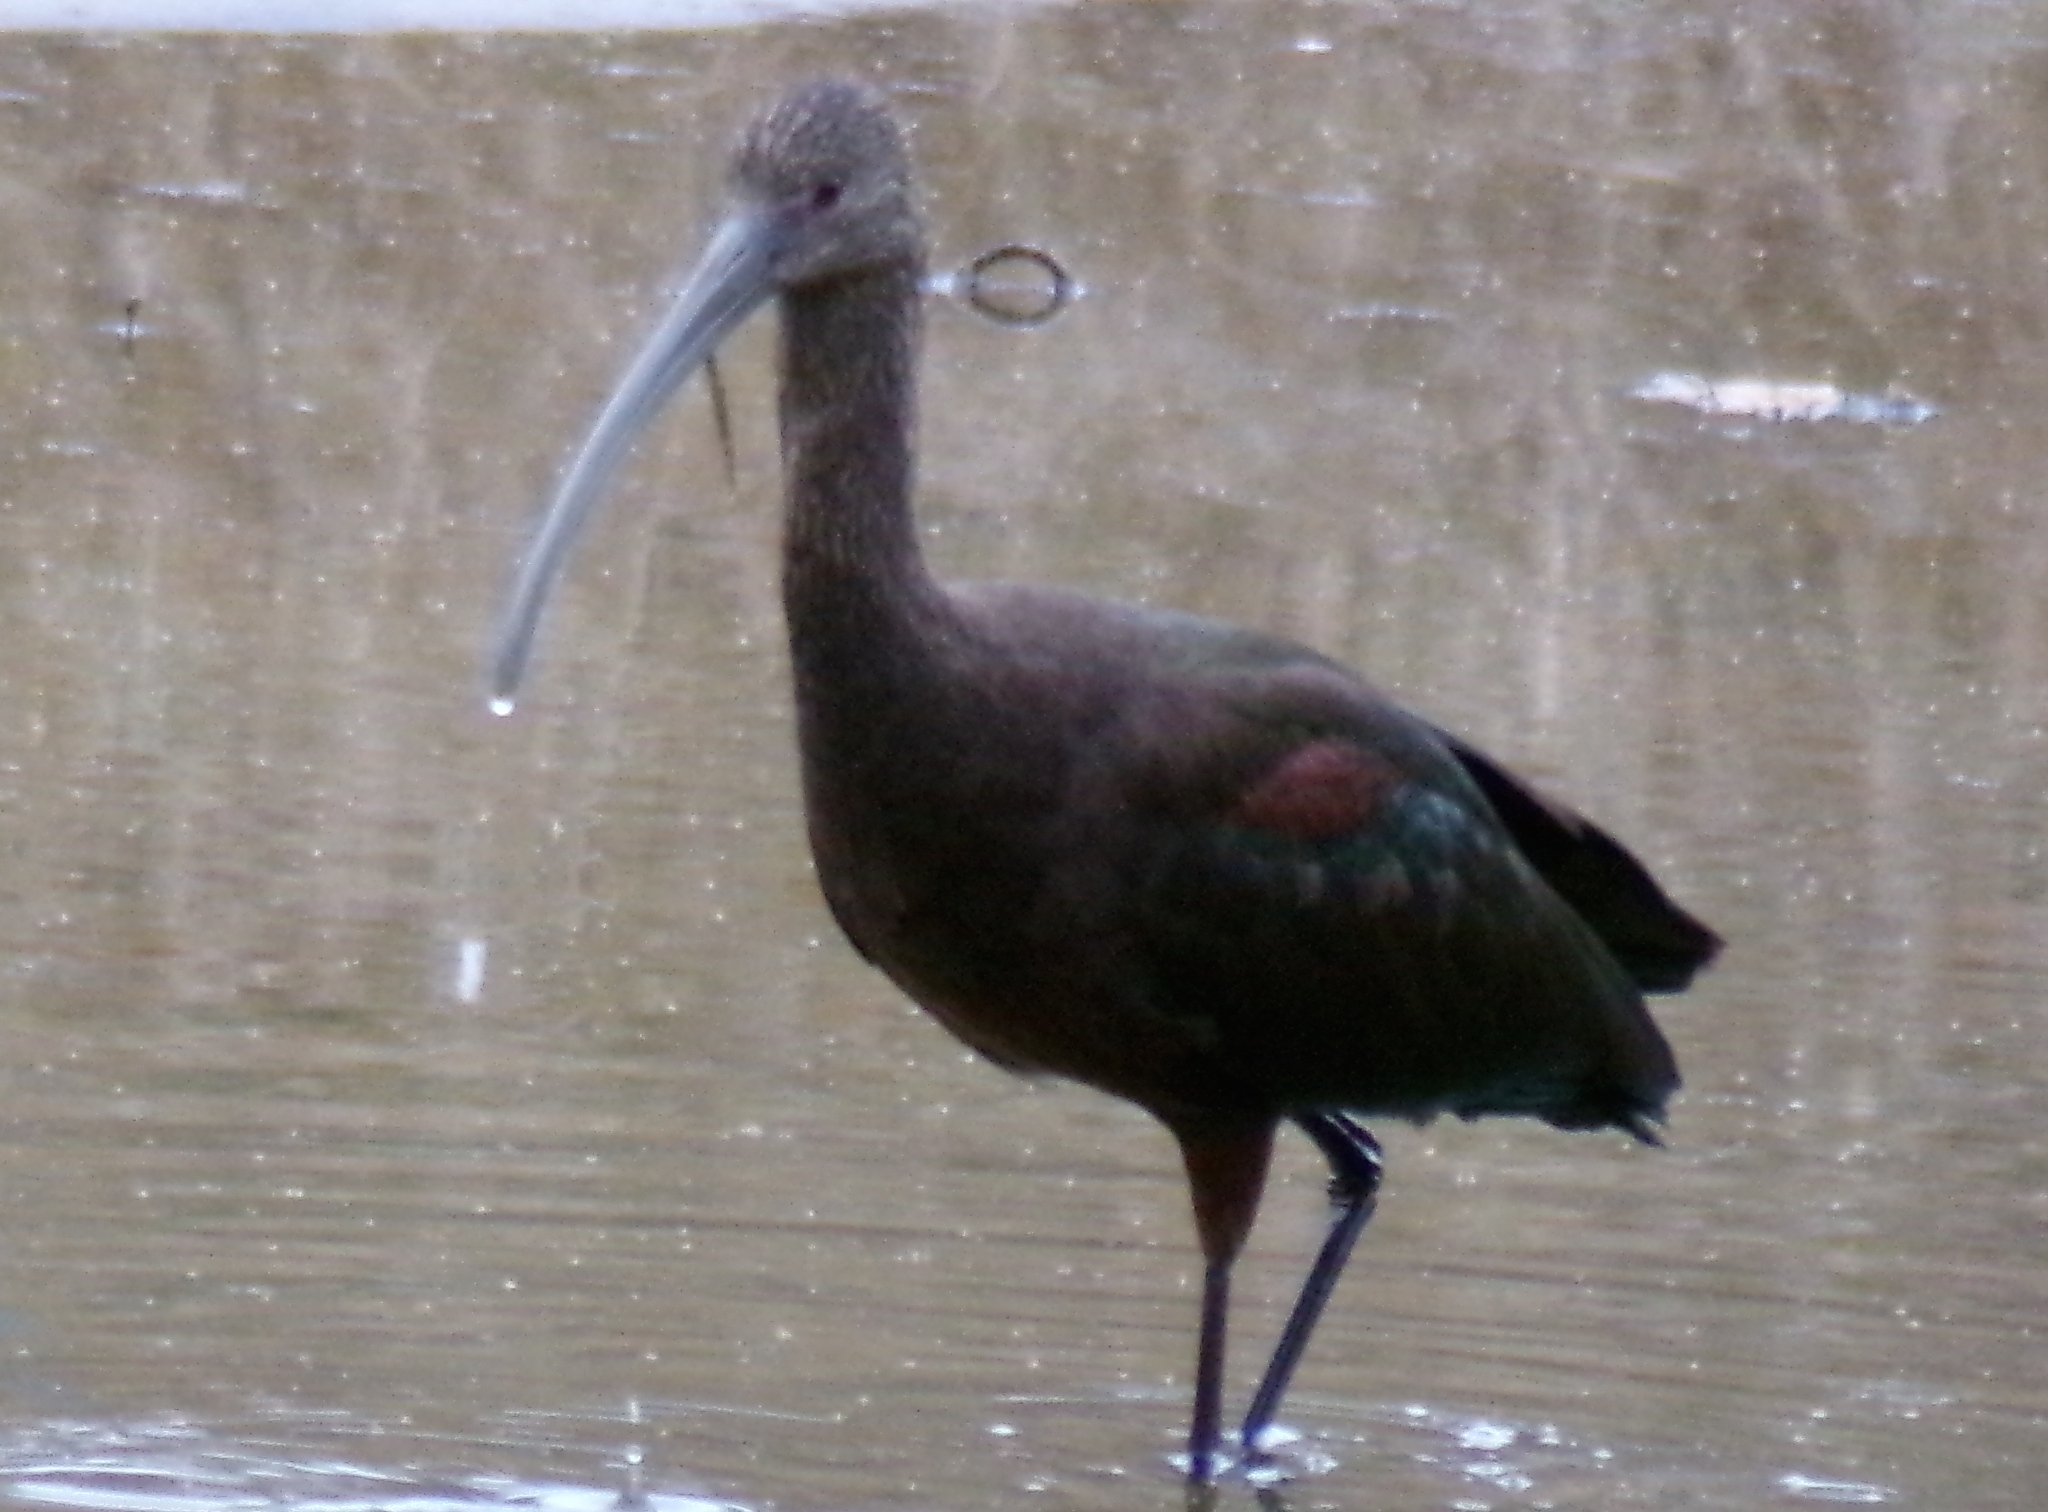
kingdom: Animalia
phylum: Chordata
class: Aves
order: Pelecaniformes
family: Threskiornithidae
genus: Plegadis
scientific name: Plegadis chihi
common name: White-faced ibis
